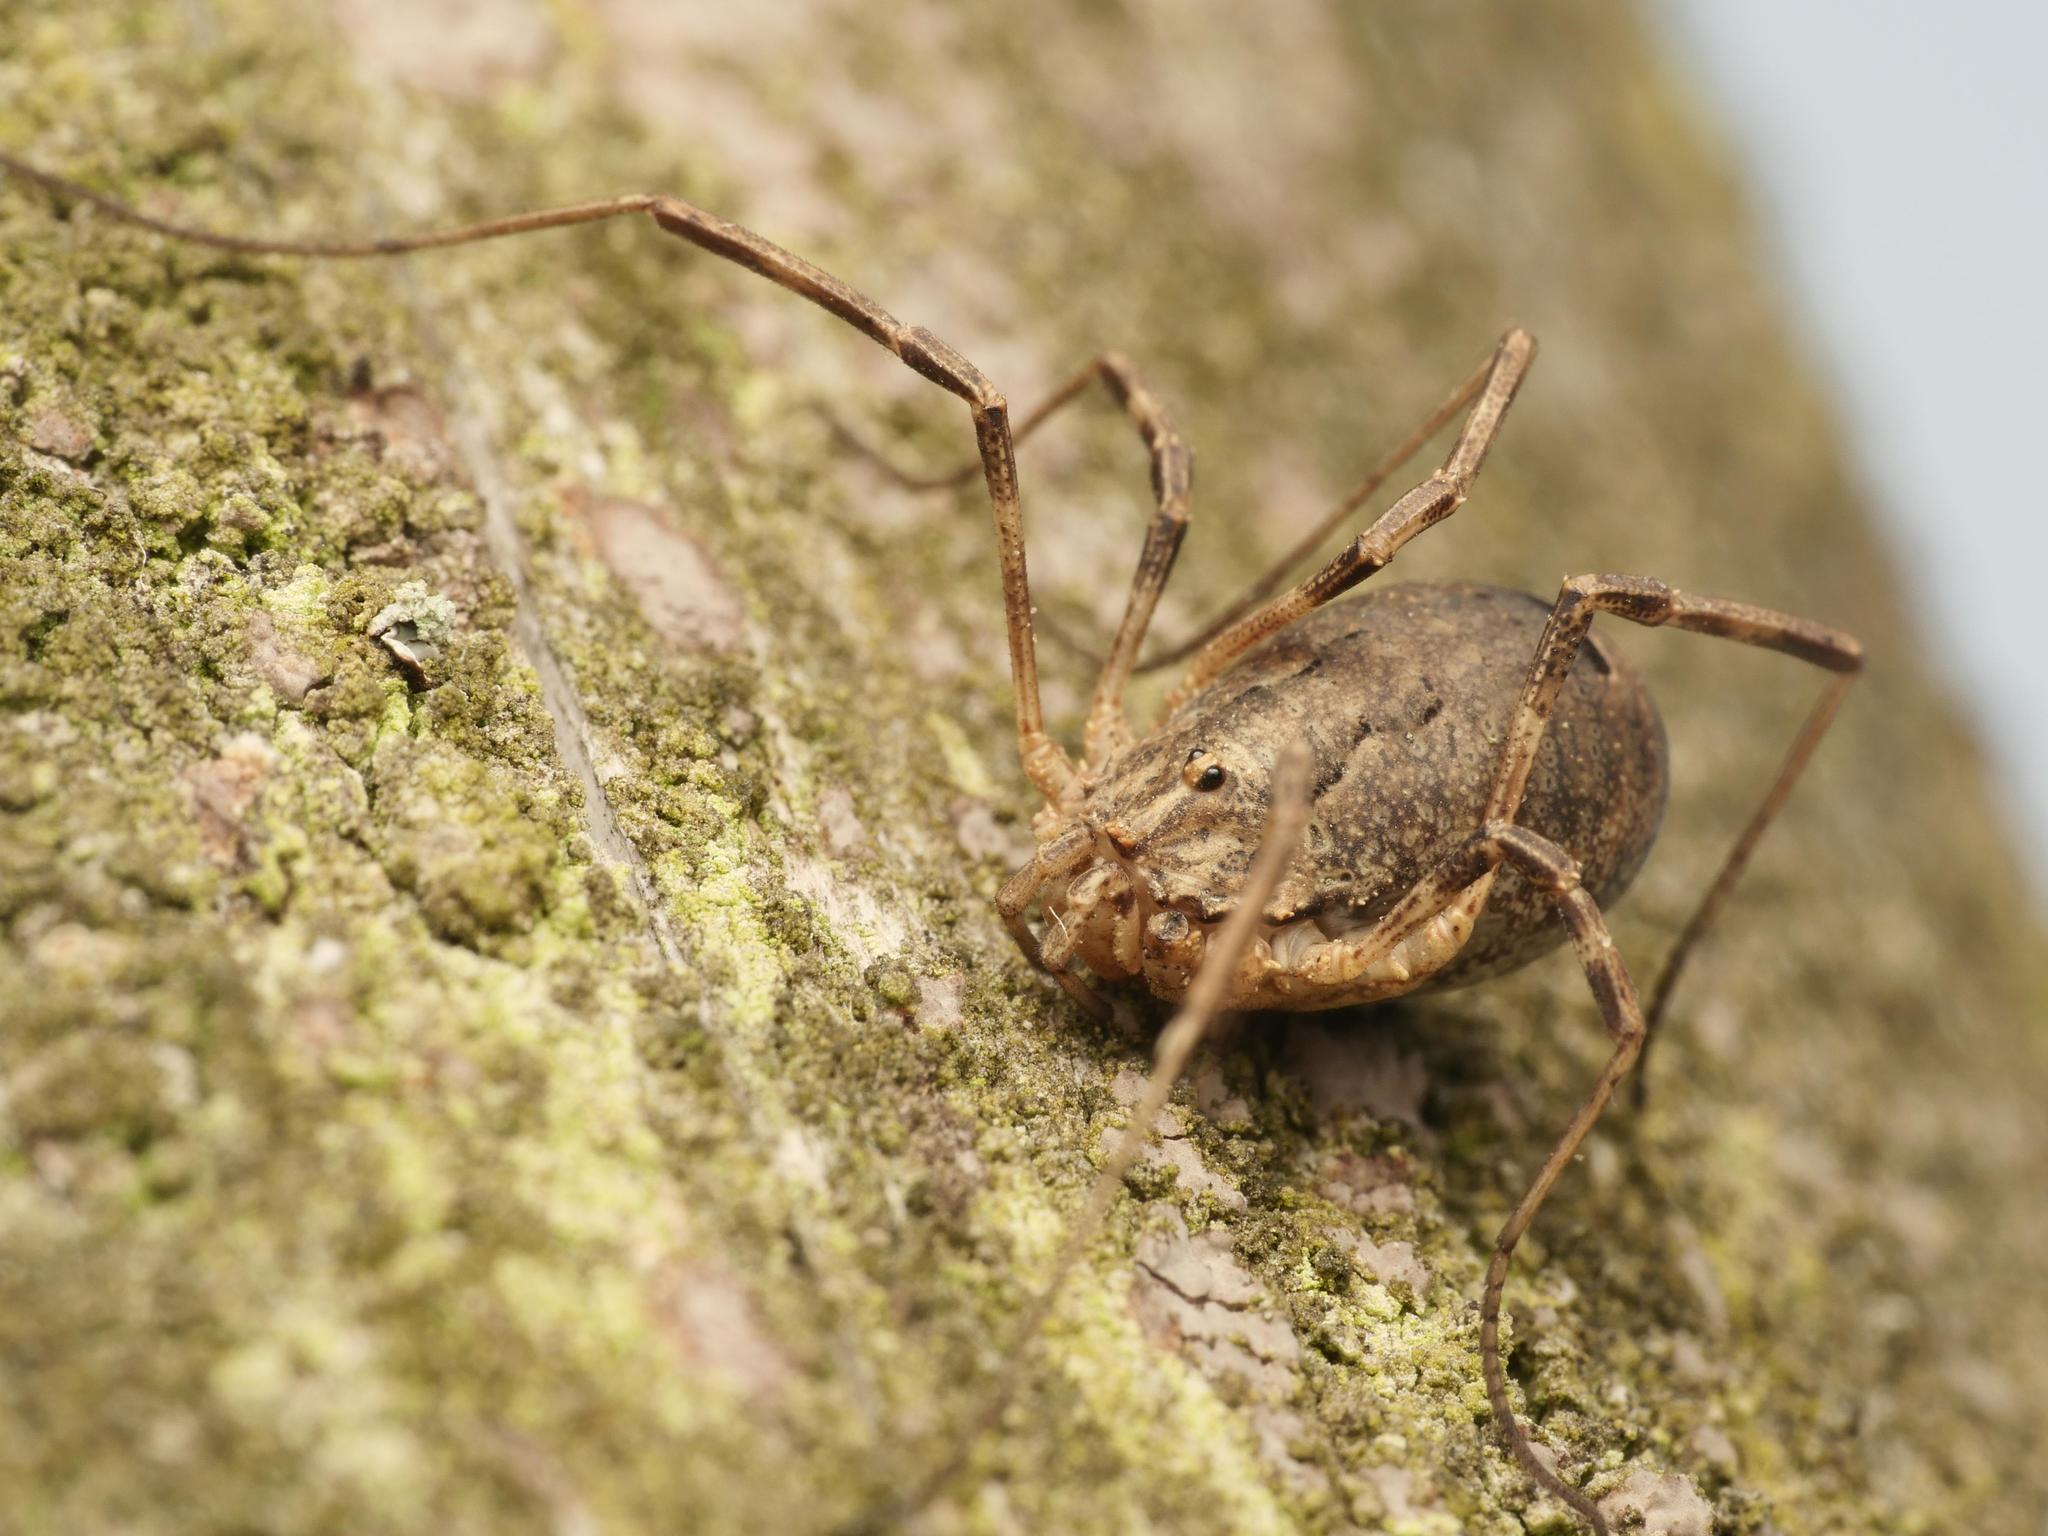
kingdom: Animalia
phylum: Arthropoda
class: Arachnida
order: Opiliones
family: Phalangiidae
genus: Odiellus
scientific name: Odiellus spinosus
